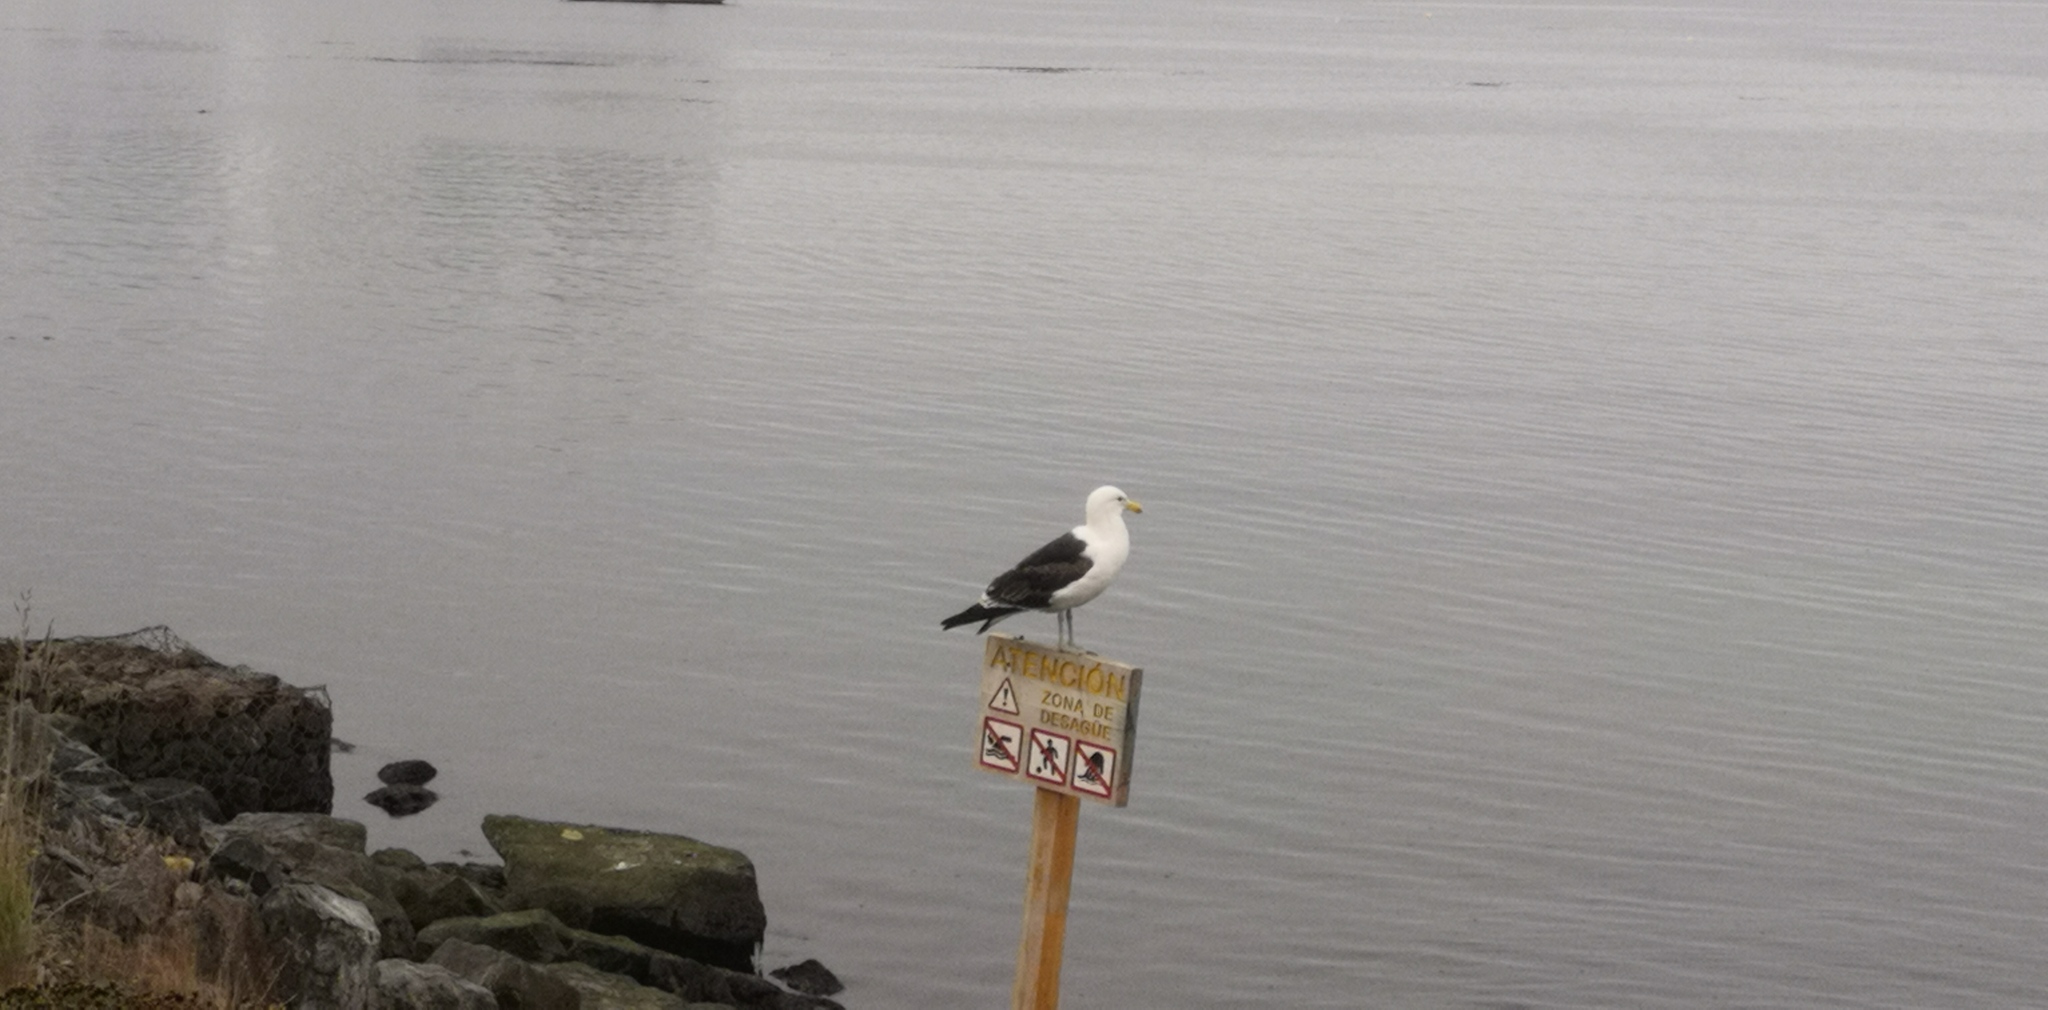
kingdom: Animalia
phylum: Chordata
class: Aves
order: Charadriiformes
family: Laridae
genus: Larus
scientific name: Larus dominicanus
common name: Kelp gull
